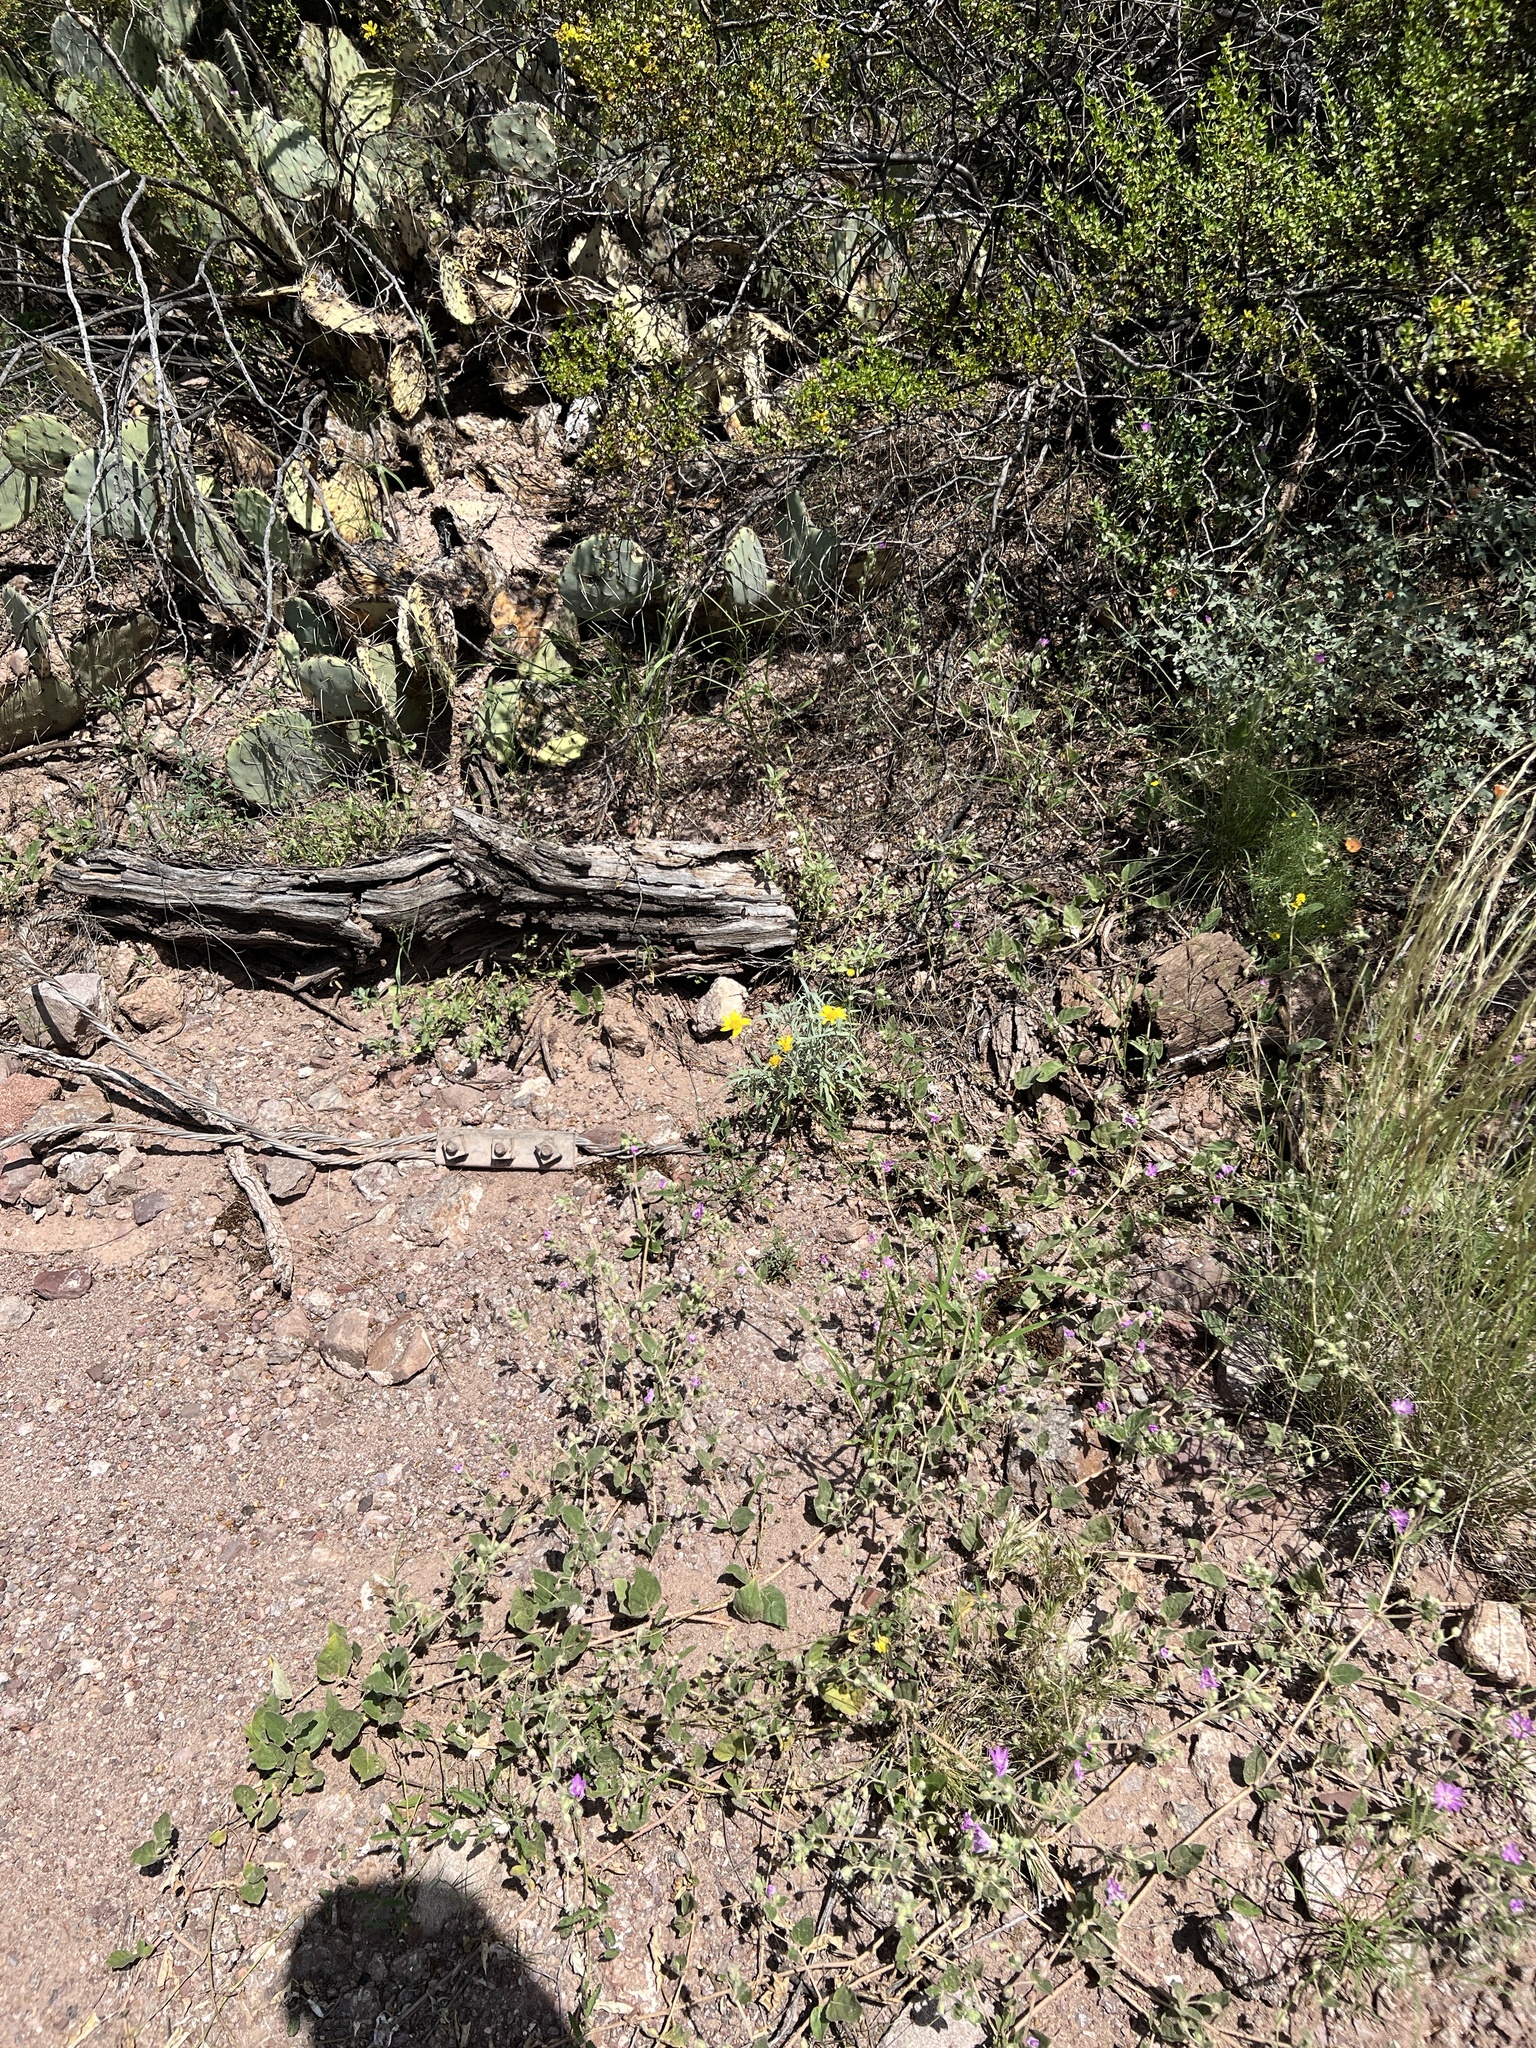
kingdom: Plantae
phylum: Tracheophyta
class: Magnoliopsida
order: Asterales
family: Asteraceae
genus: Heliomeris
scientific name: Heliomeris multiflora
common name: Showy goldeneye
